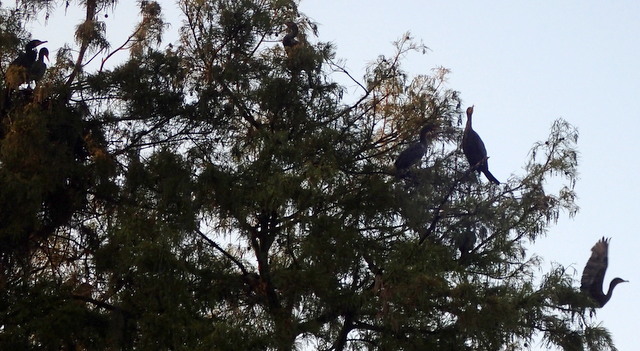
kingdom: Animalia
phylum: Chordata
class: Aves
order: Suliformes
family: Phalacrocoracidae
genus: Phalacrocorax
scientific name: Phalacrocorax auritus
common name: Double-crested cormorant
